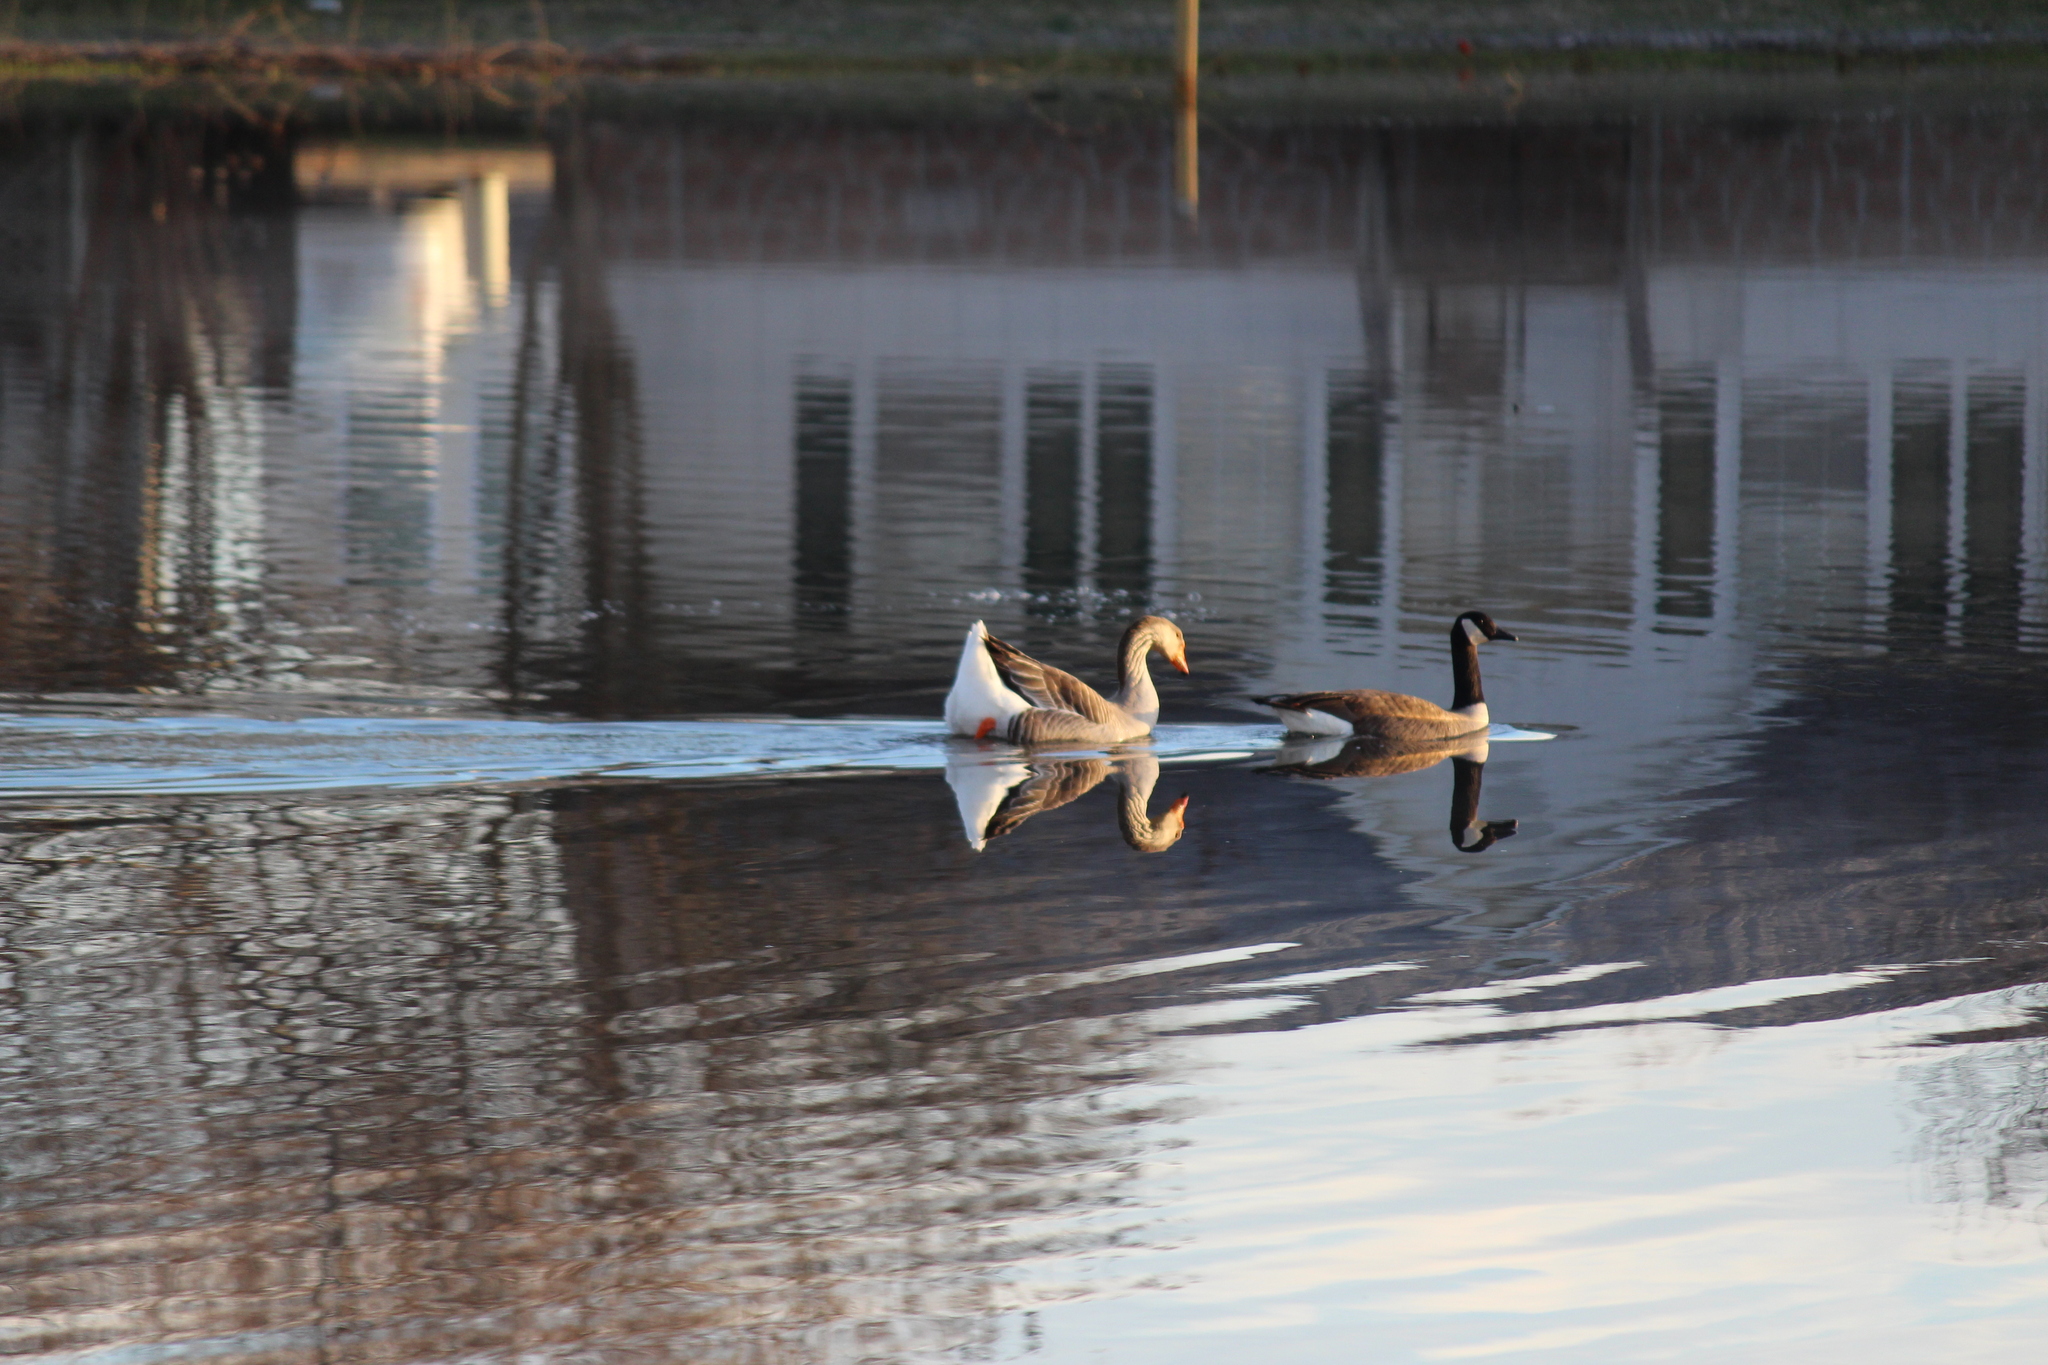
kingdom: Animalia
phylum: Chordata
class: Aves
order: Anseriformes
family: Anatidae
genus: Branta
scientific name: Branta canadensis
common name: Canada goose
